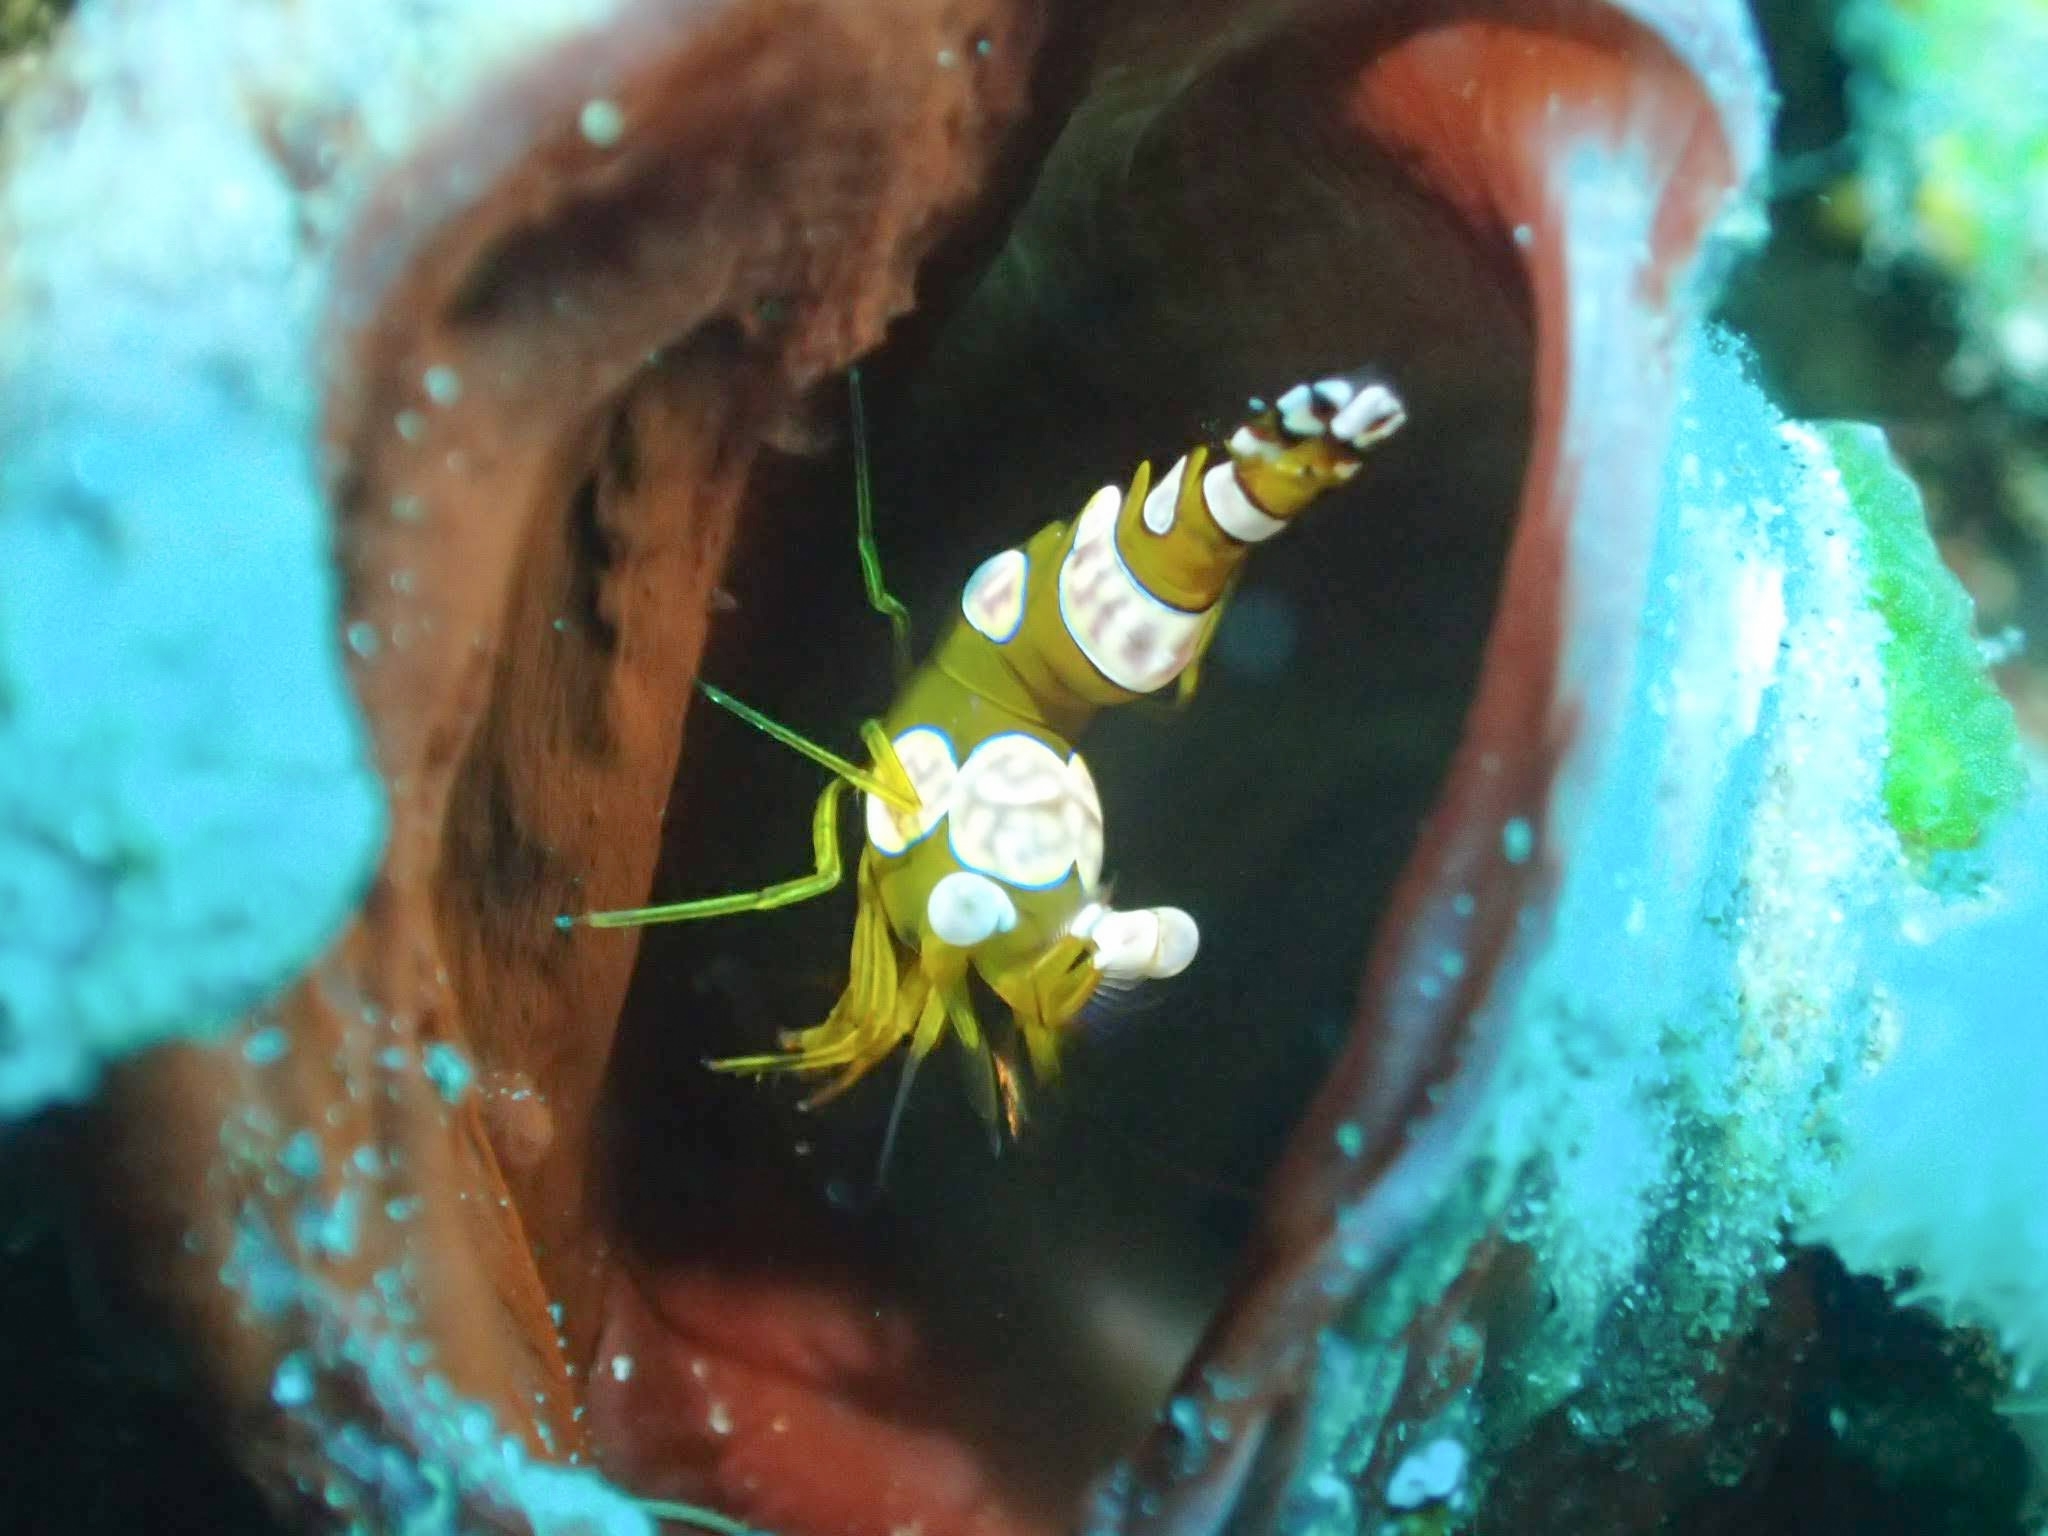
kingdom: Animalia
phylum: Arthropoda
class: Malacostraca
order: Decapoda
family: Thoridae
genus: Thor
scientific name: Thor amboinensis
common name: Squat anemone shrimp
